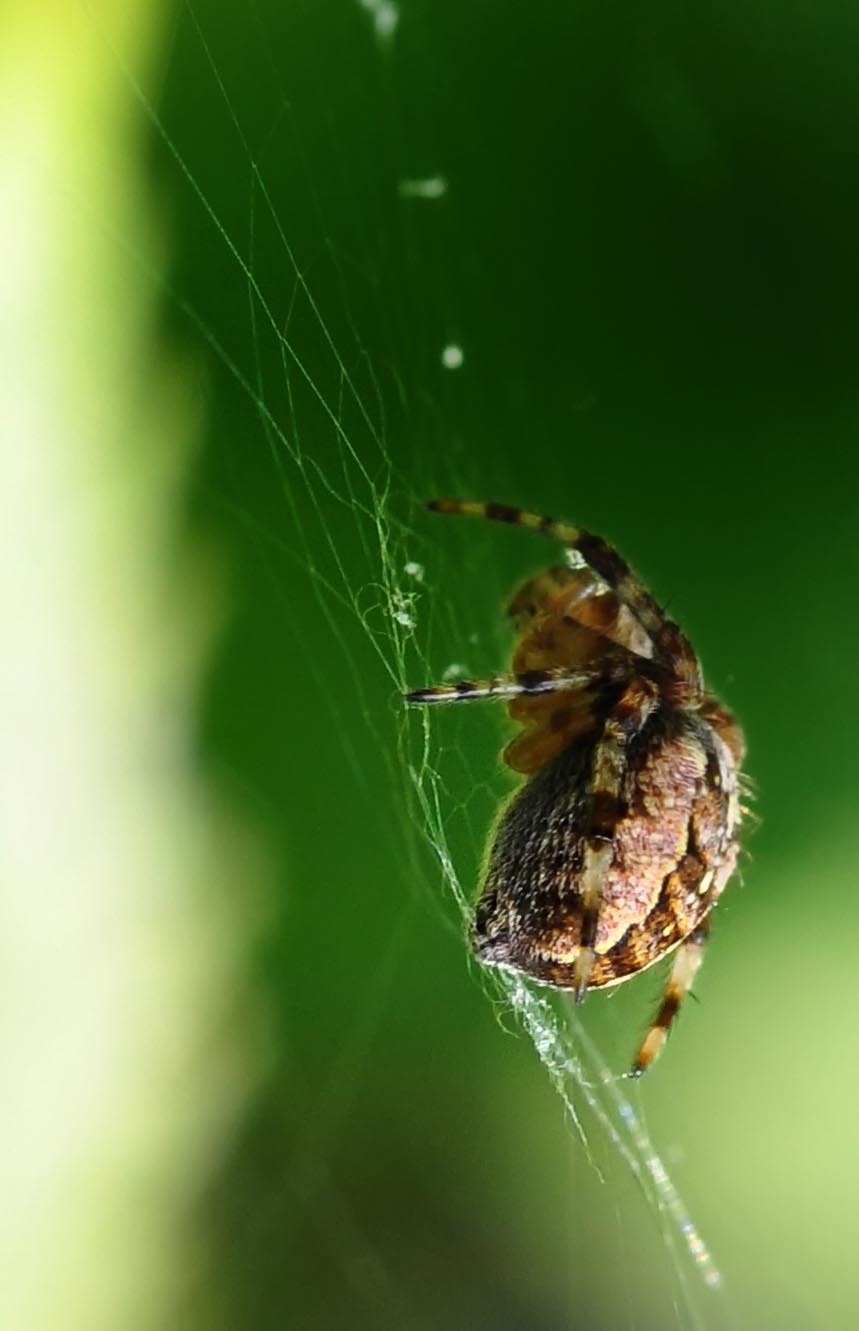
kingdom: Animalia
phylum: Arthropoda
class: Arachnida
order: Araneae
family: Araneidae
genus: Araneus
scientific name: Araneus diadematus
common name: Cross orbweaver
